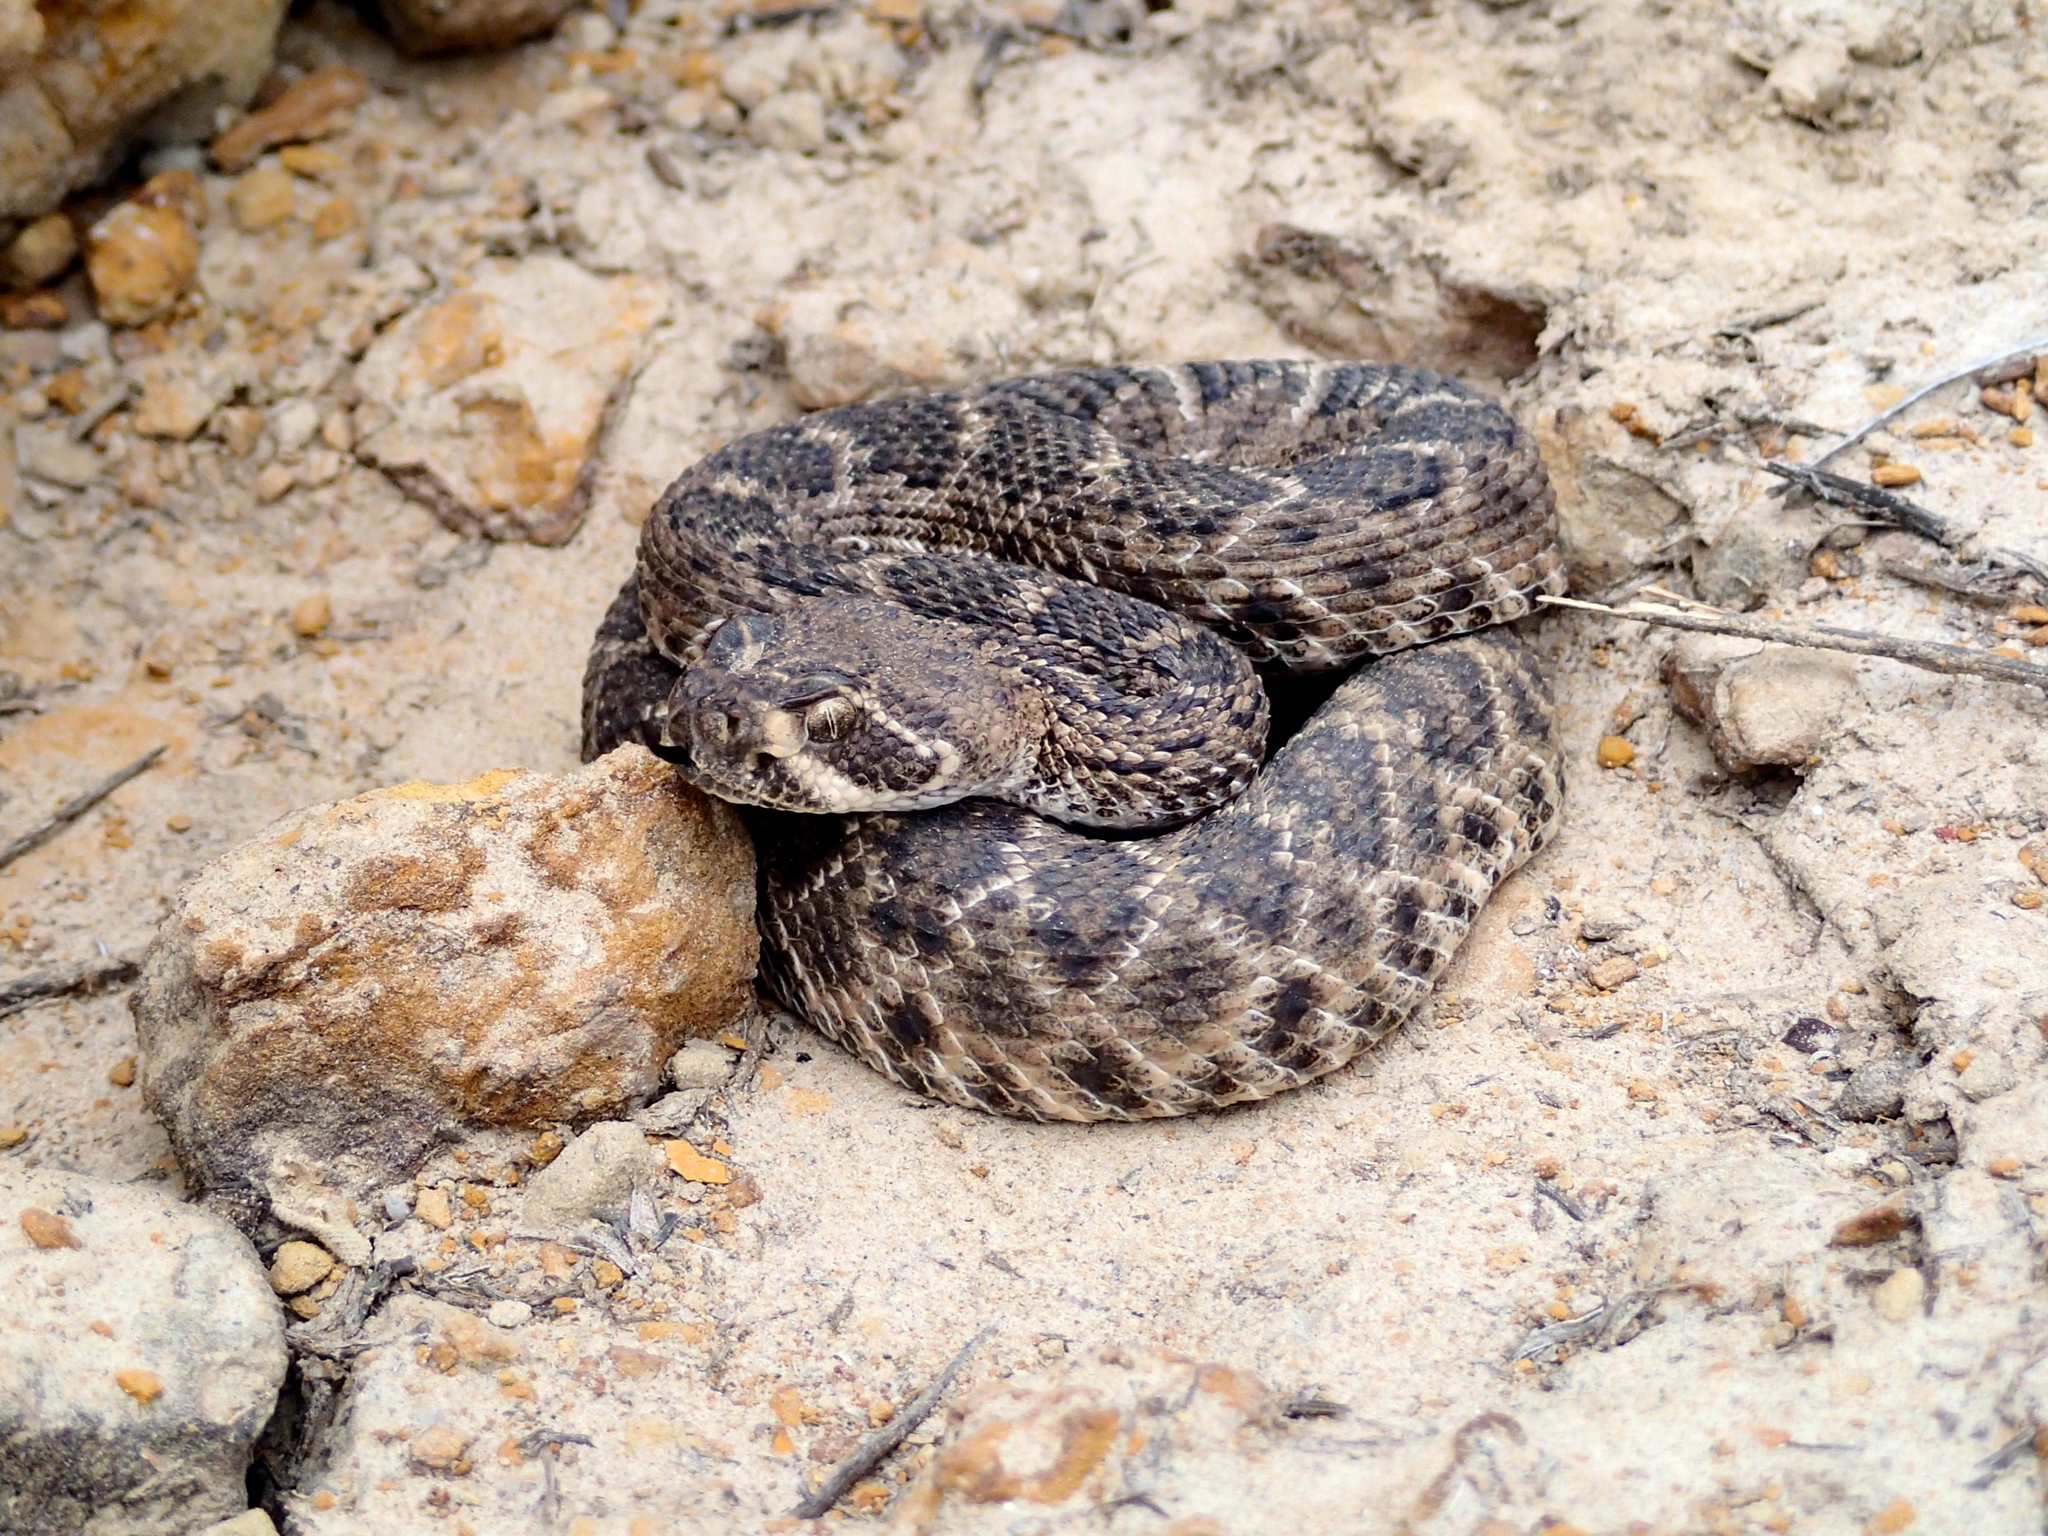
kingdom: Animalia
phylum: Chordata
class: Squamata
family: Viperidae
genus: Crotalus
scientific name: Crotalus atrox
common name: Western diamond-backed rattlesnake
